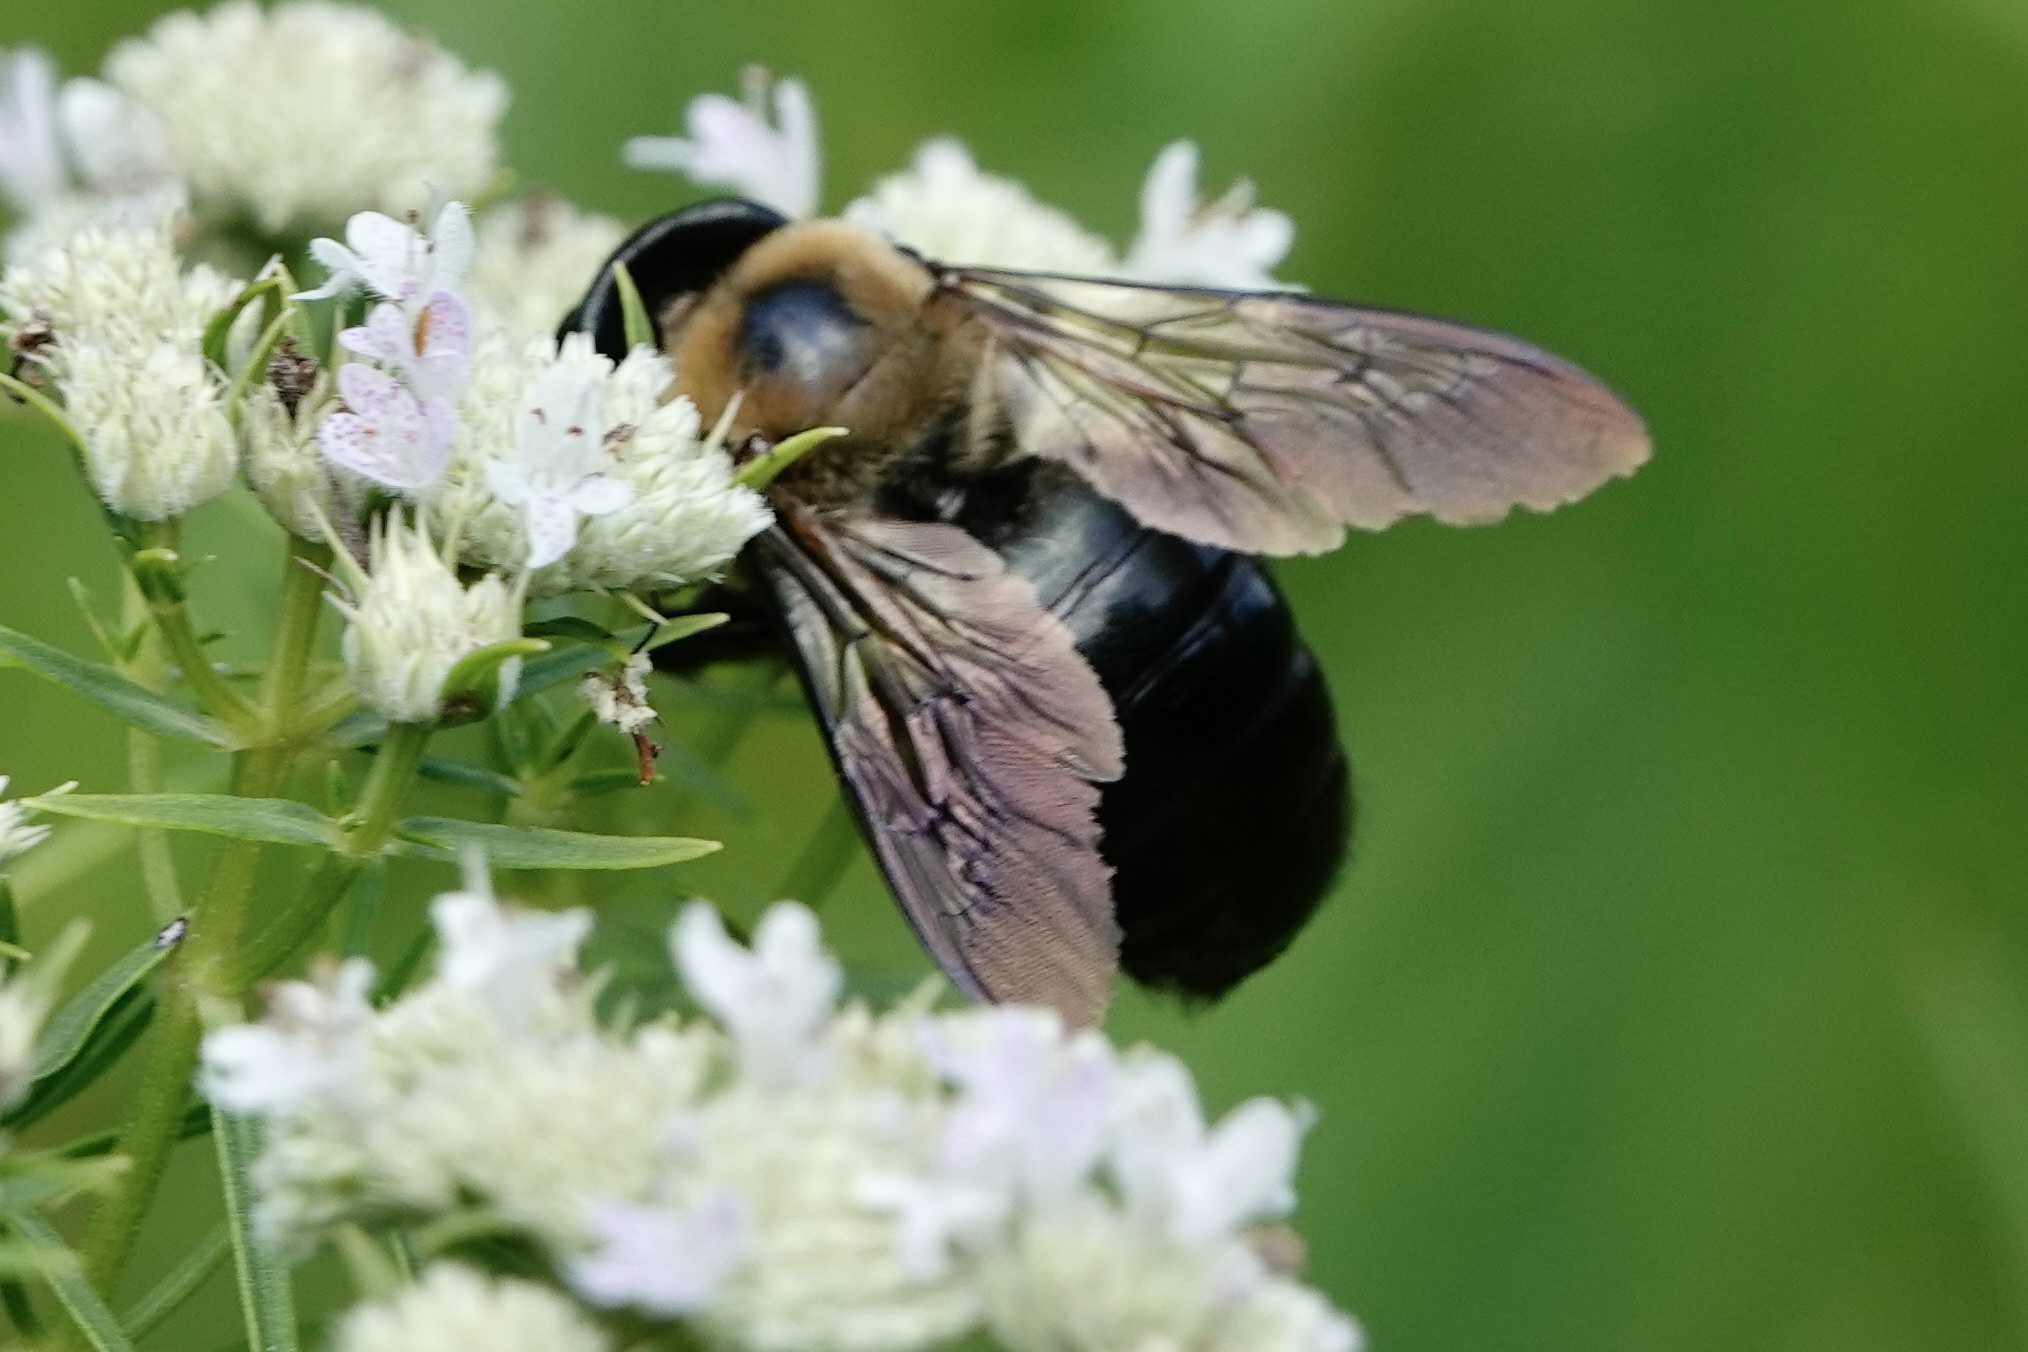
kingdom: Animalia
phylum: Arthropoda
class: Insecta
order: Hymenoptera
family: Apidae
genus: Xylocopa
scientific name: Xylocopa virginica
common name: Carpenter bee
